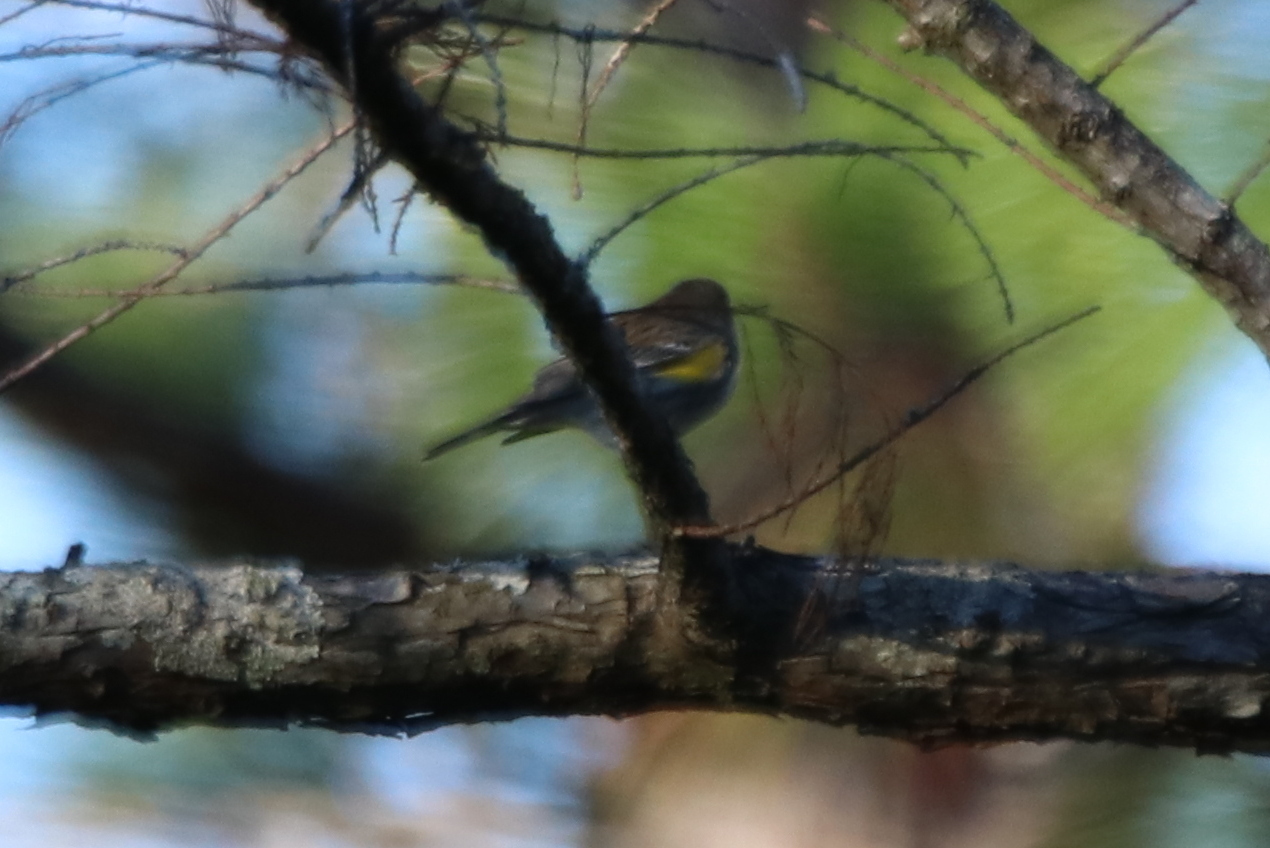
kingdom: Animalia
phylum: Chordata
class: Aves
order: Passeriformes
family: Parulidae
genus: Setophaga
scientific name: Setophaga coronata
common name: Myrtle warbler
